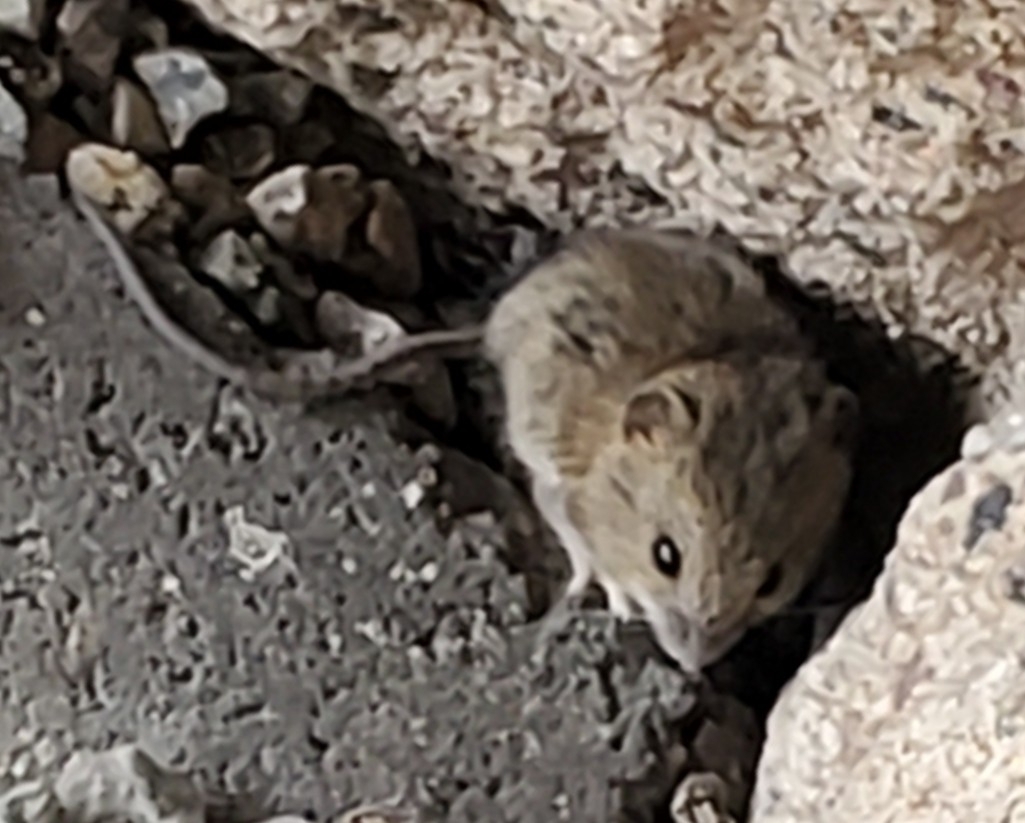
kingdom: Animalia
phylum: Chordata
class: Mammalia
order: Rodentia
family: Cricetidae
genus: Reithrodontomys
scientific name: Reithrodontomys megalotis
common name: Western harvest mouse
